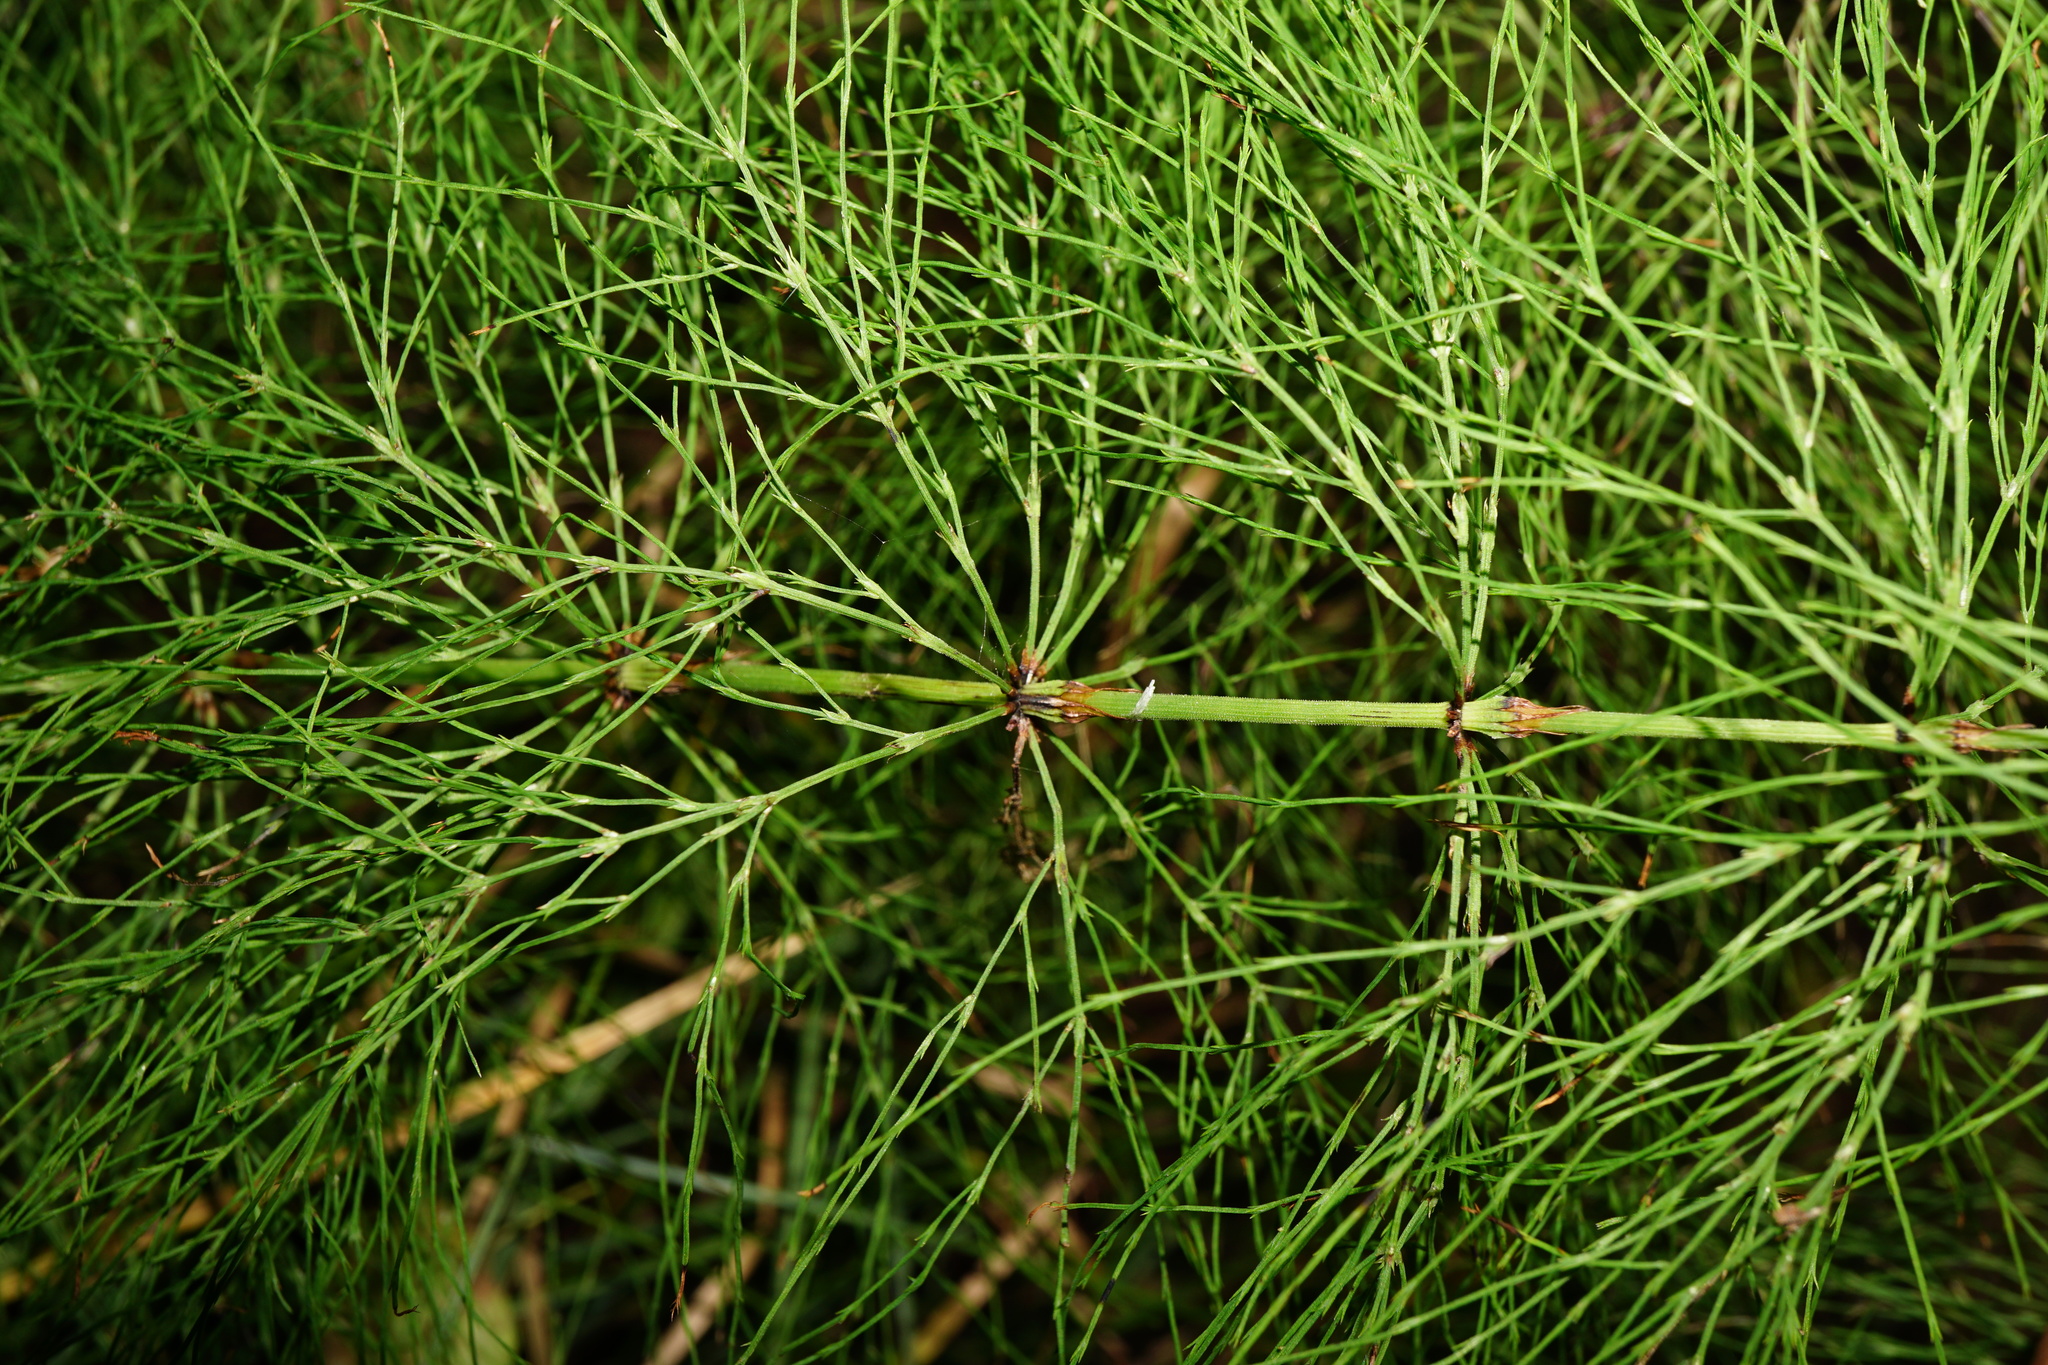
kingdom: Plantae
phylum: Tracheophyta
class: Polypodiopsida
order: Equisetales
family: Equisetaceae
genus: Equisetum
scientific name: Equisetum sylvaticum
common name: Wood horsetail
